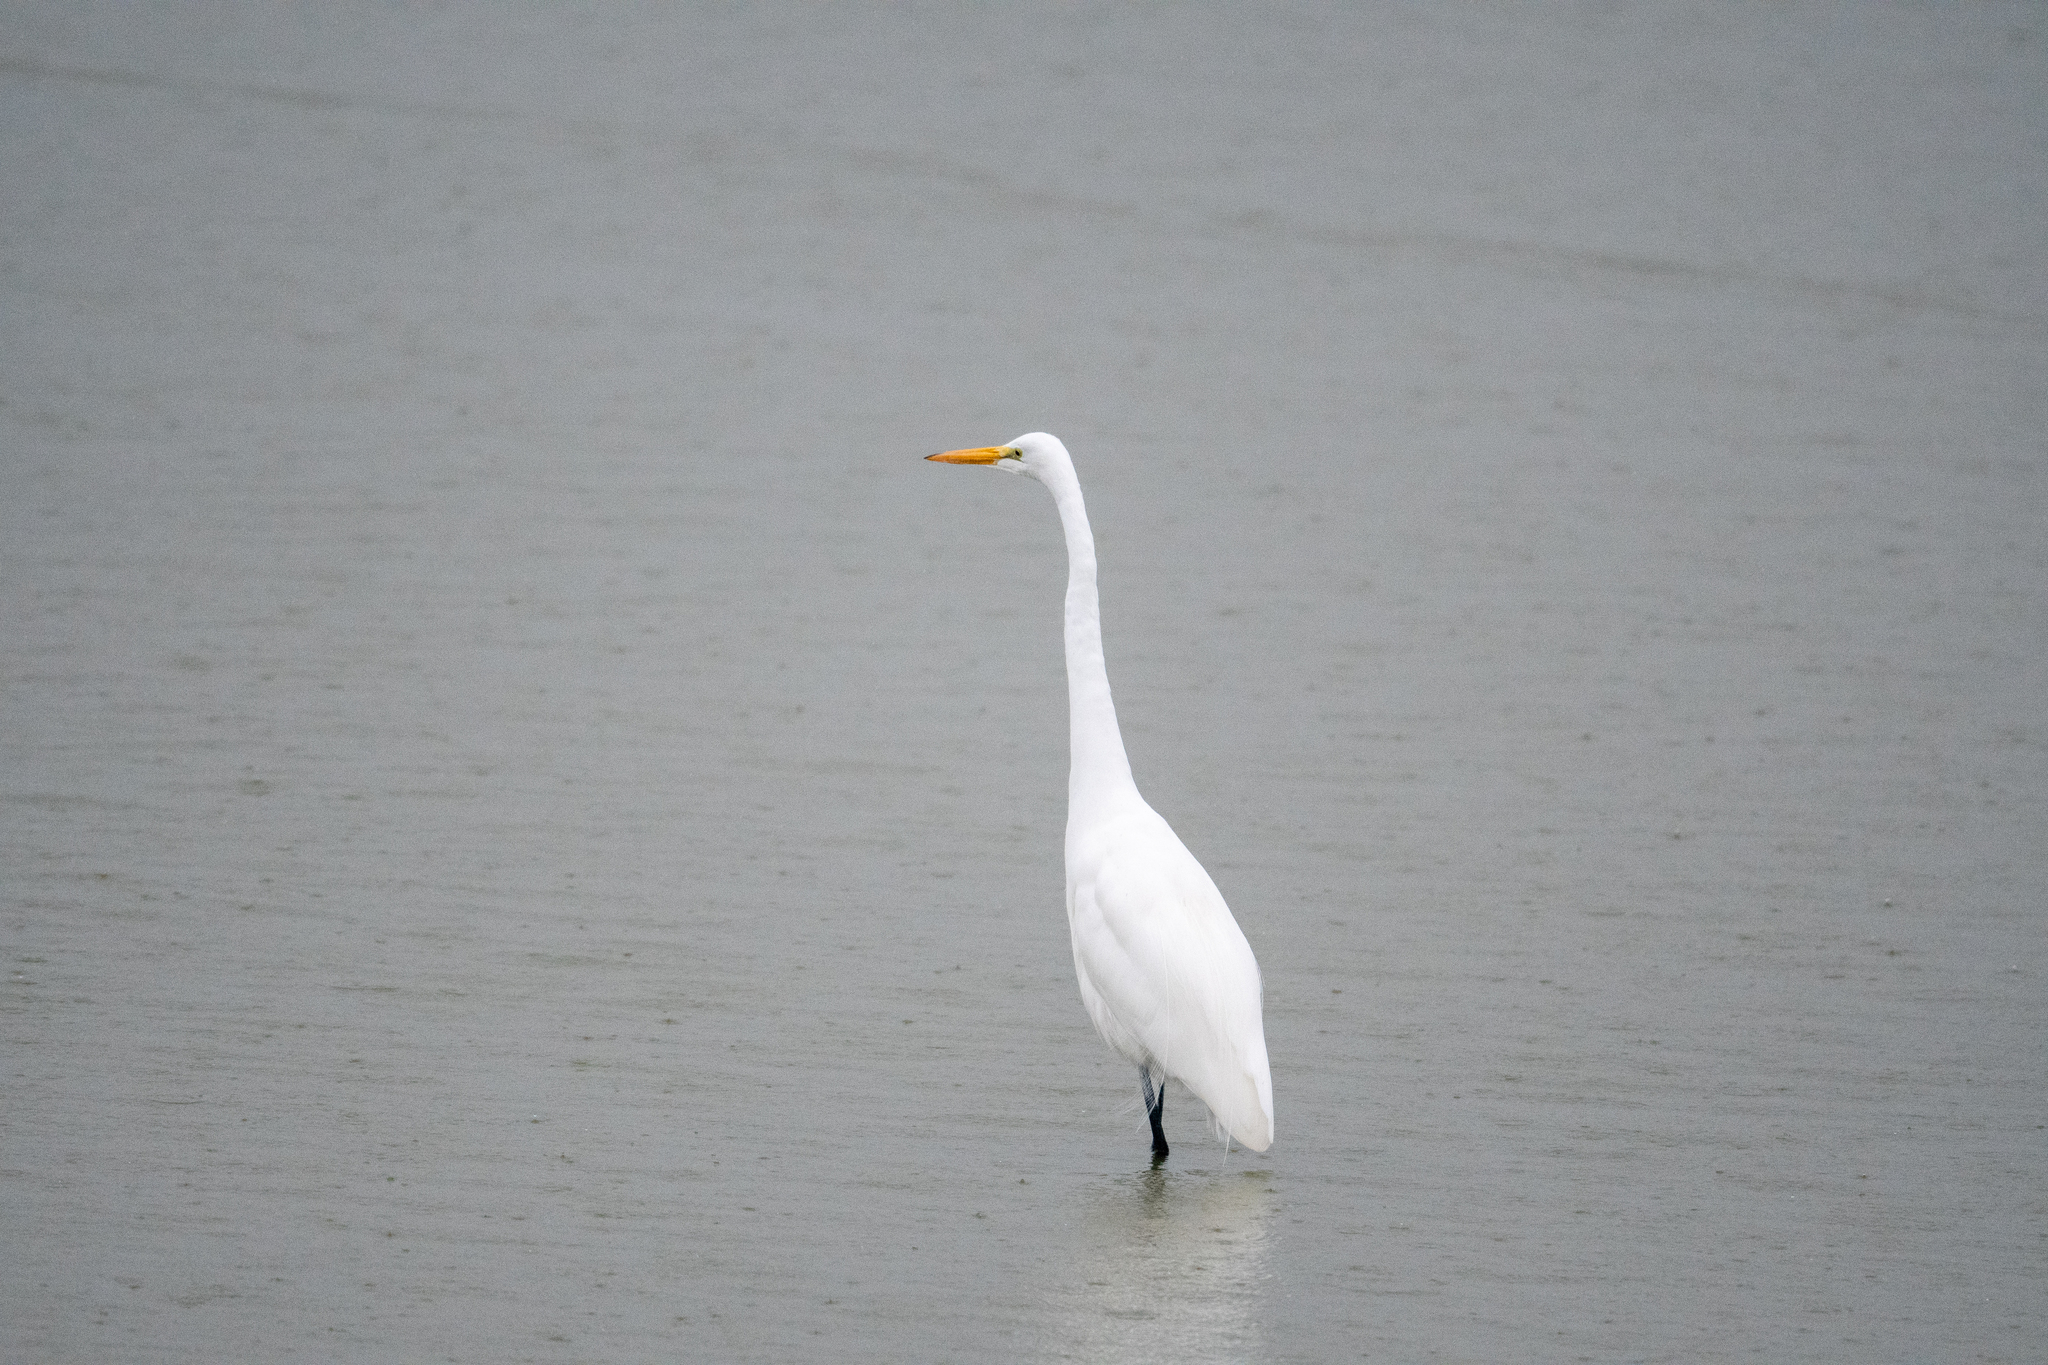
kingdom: Animalia
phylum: Chordata
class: Aves
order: Pelecaniformes
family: Ardeidae
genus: Ardea
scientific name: Ardea alba
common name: Great egret
